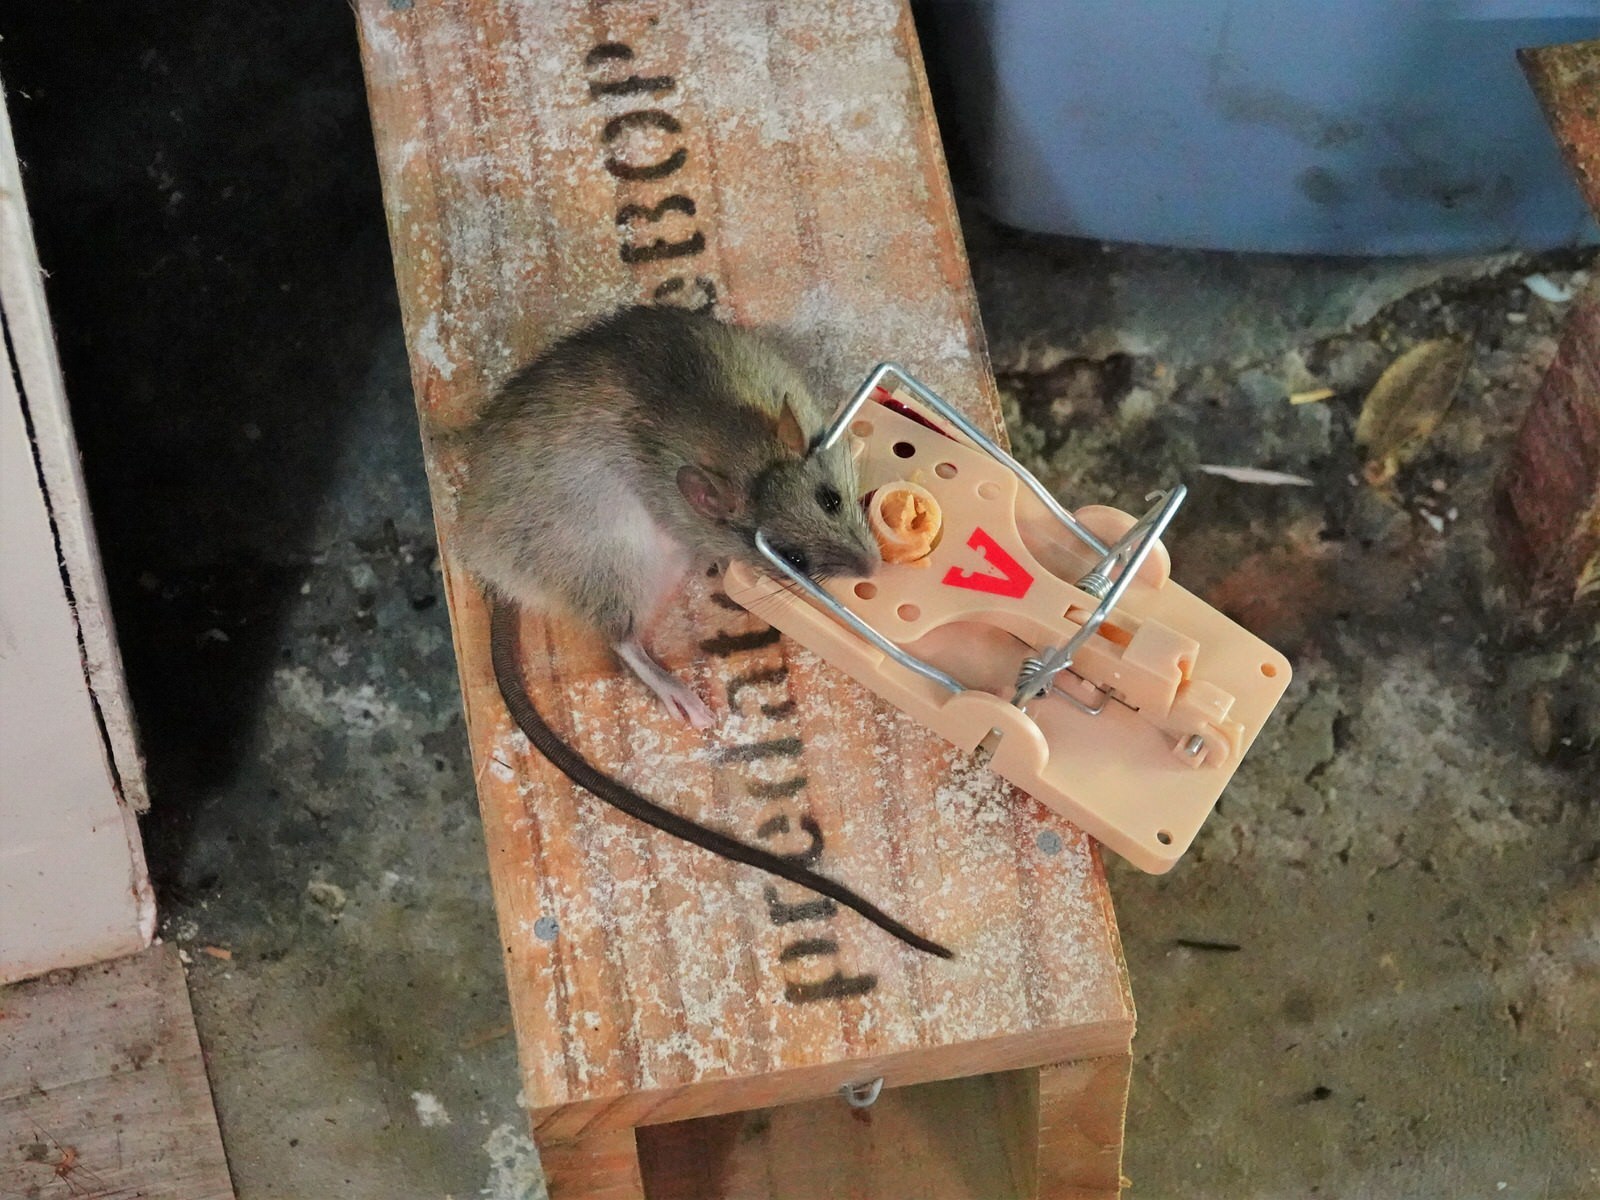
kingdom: Animalia
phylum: Chordata
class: Mammalia
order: Rodentia
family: Muridae
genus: Rattus
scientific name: Rattus rattus
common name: Black rat
